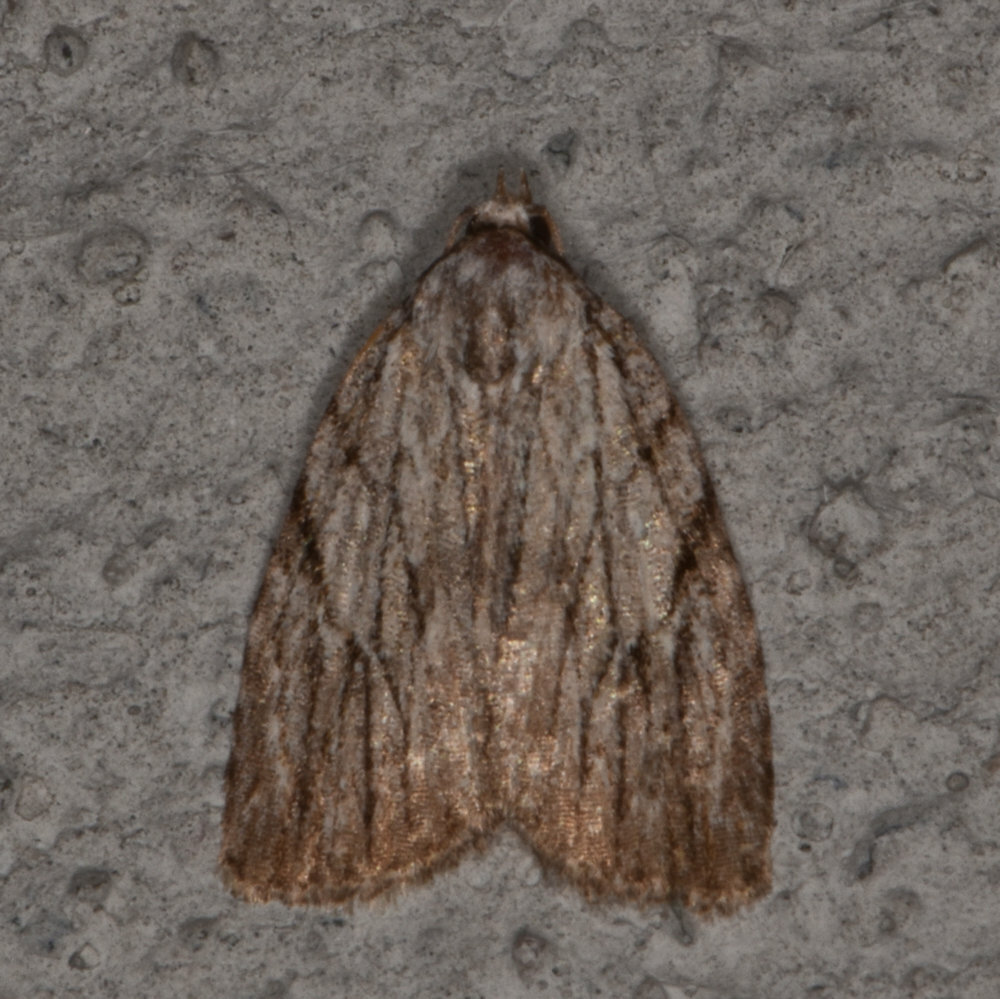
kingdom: Animalia
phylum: Arthropoda
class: Insecta
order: Lepidoptera
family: Noctuidae
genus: Balsa
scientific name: Balsa tristrigella
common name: Three-lined balsa moth
